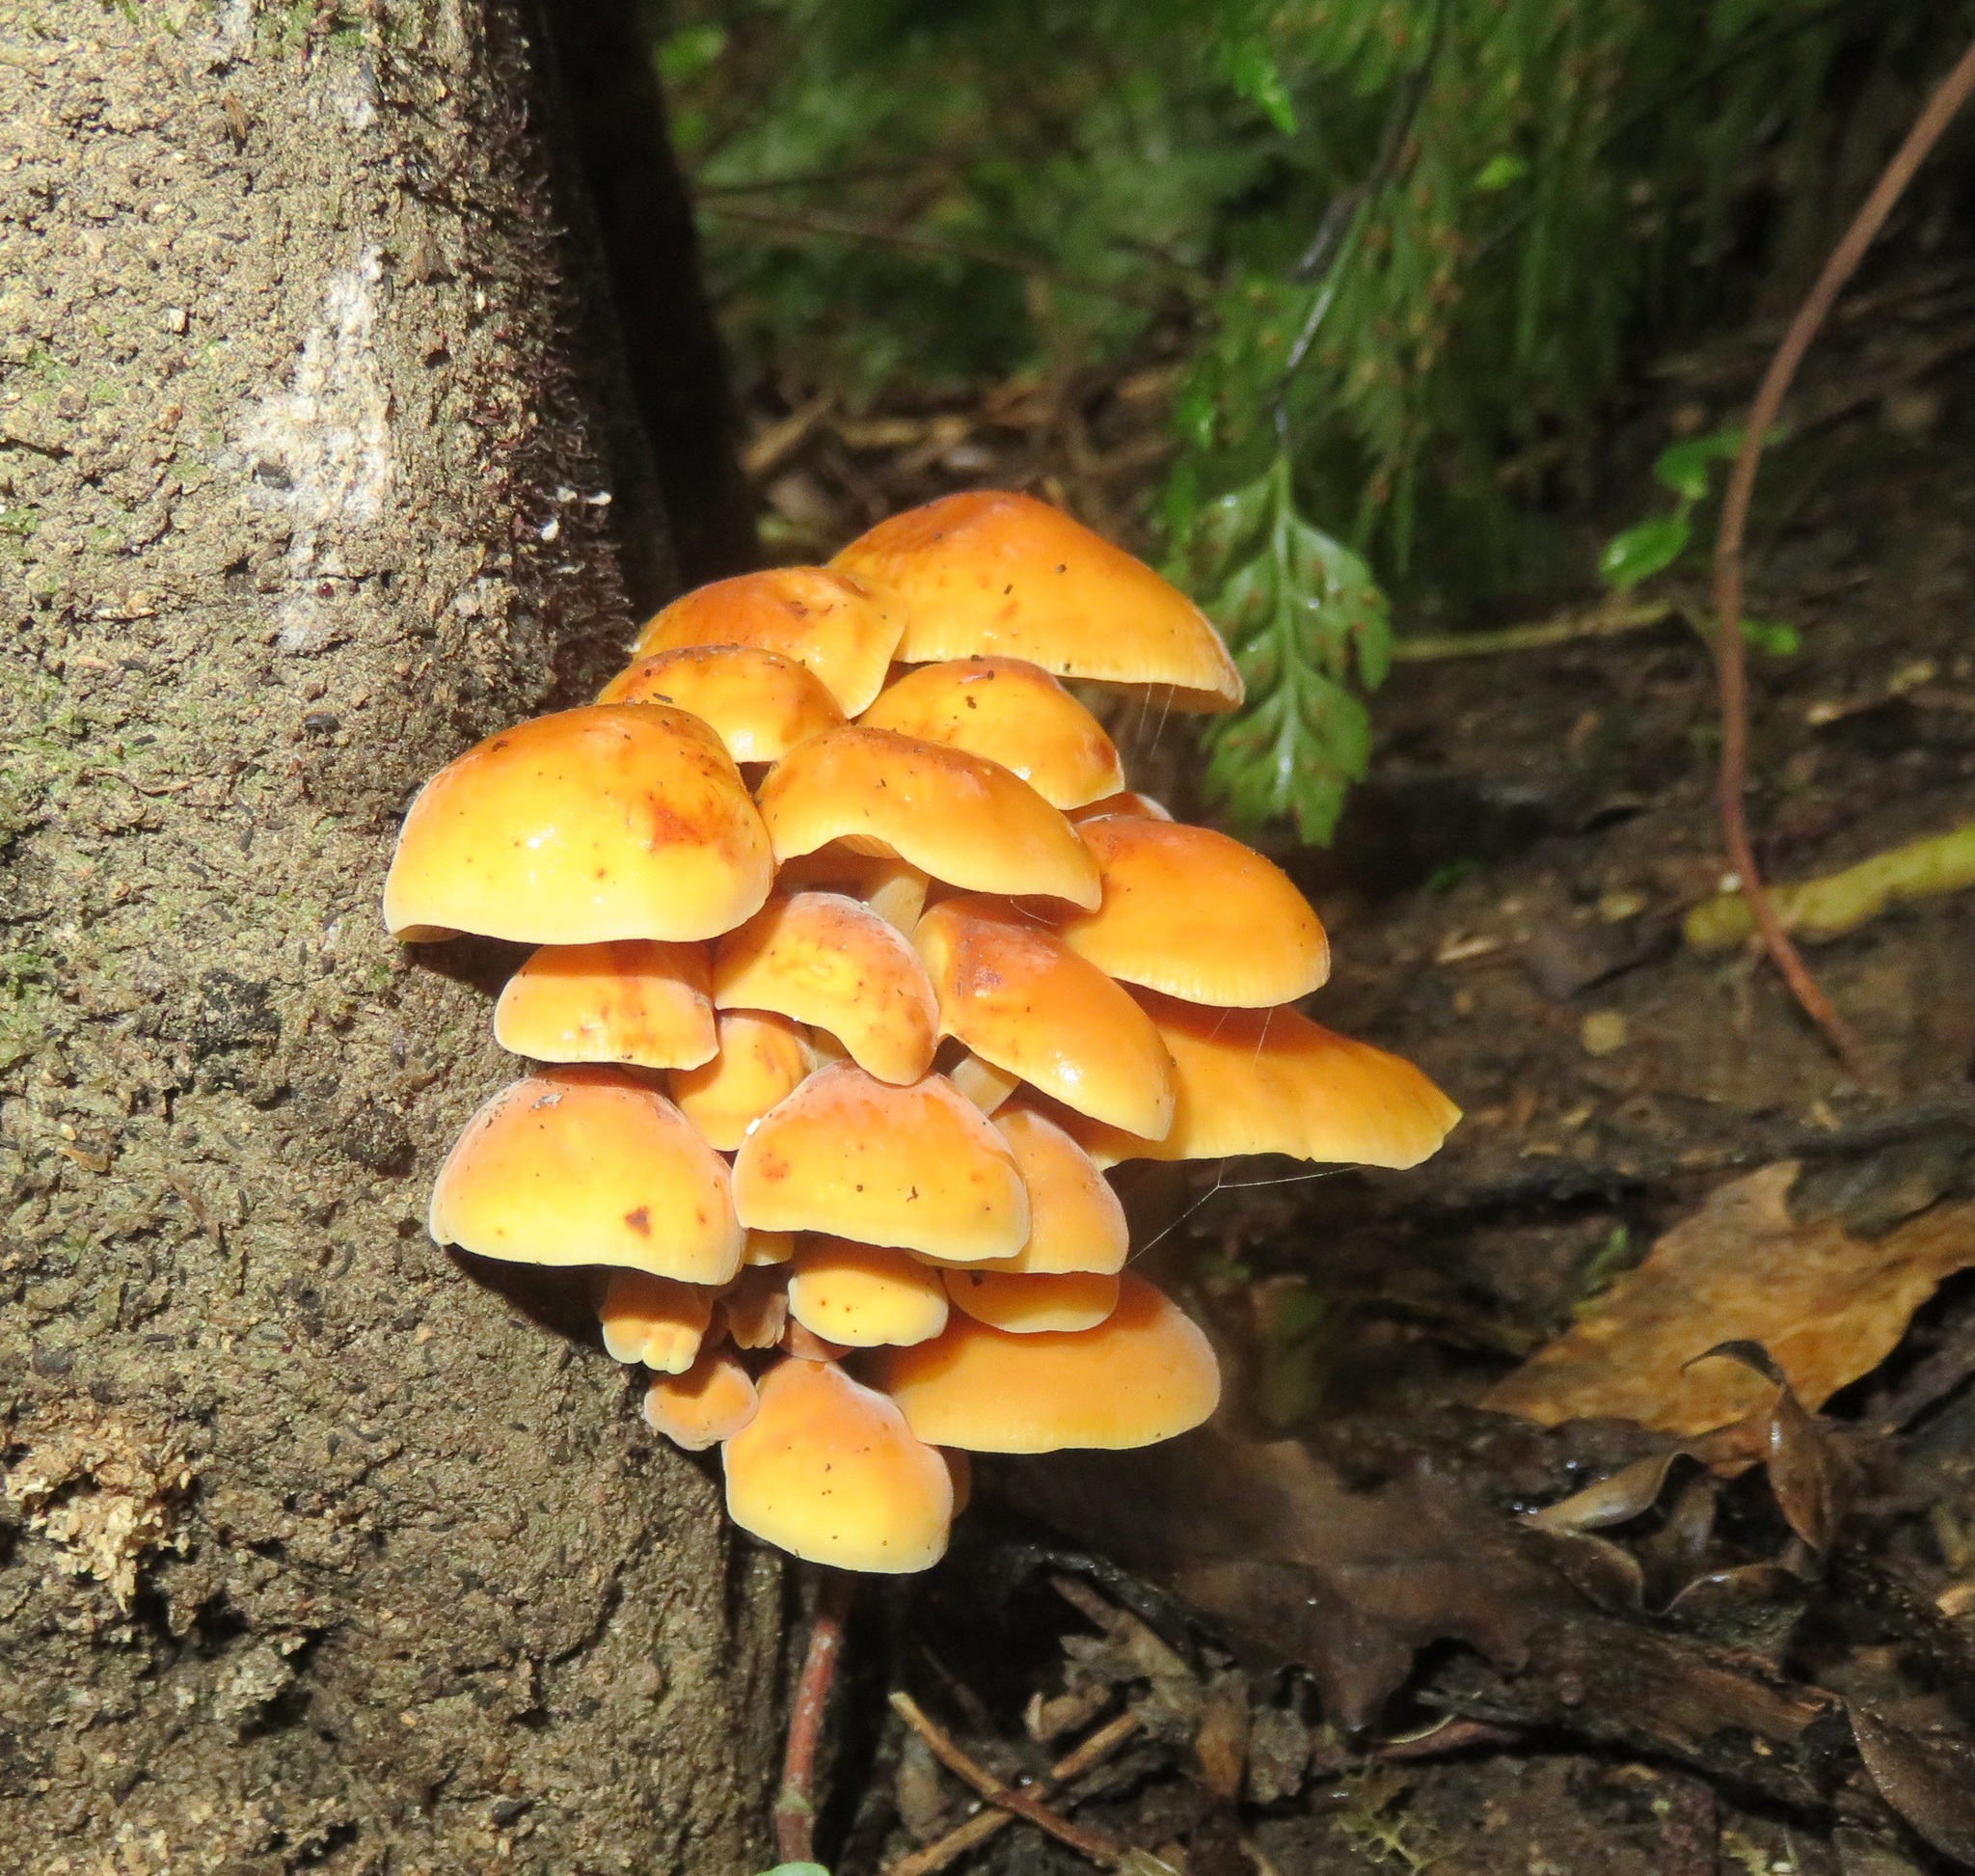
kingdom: Fungi
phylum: Basidiomycota
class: Agaricomycetes
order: Agaricales
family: Physalacriaceae
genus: Flammulina
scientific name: Flammulina velutipes
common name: Velvet shank
